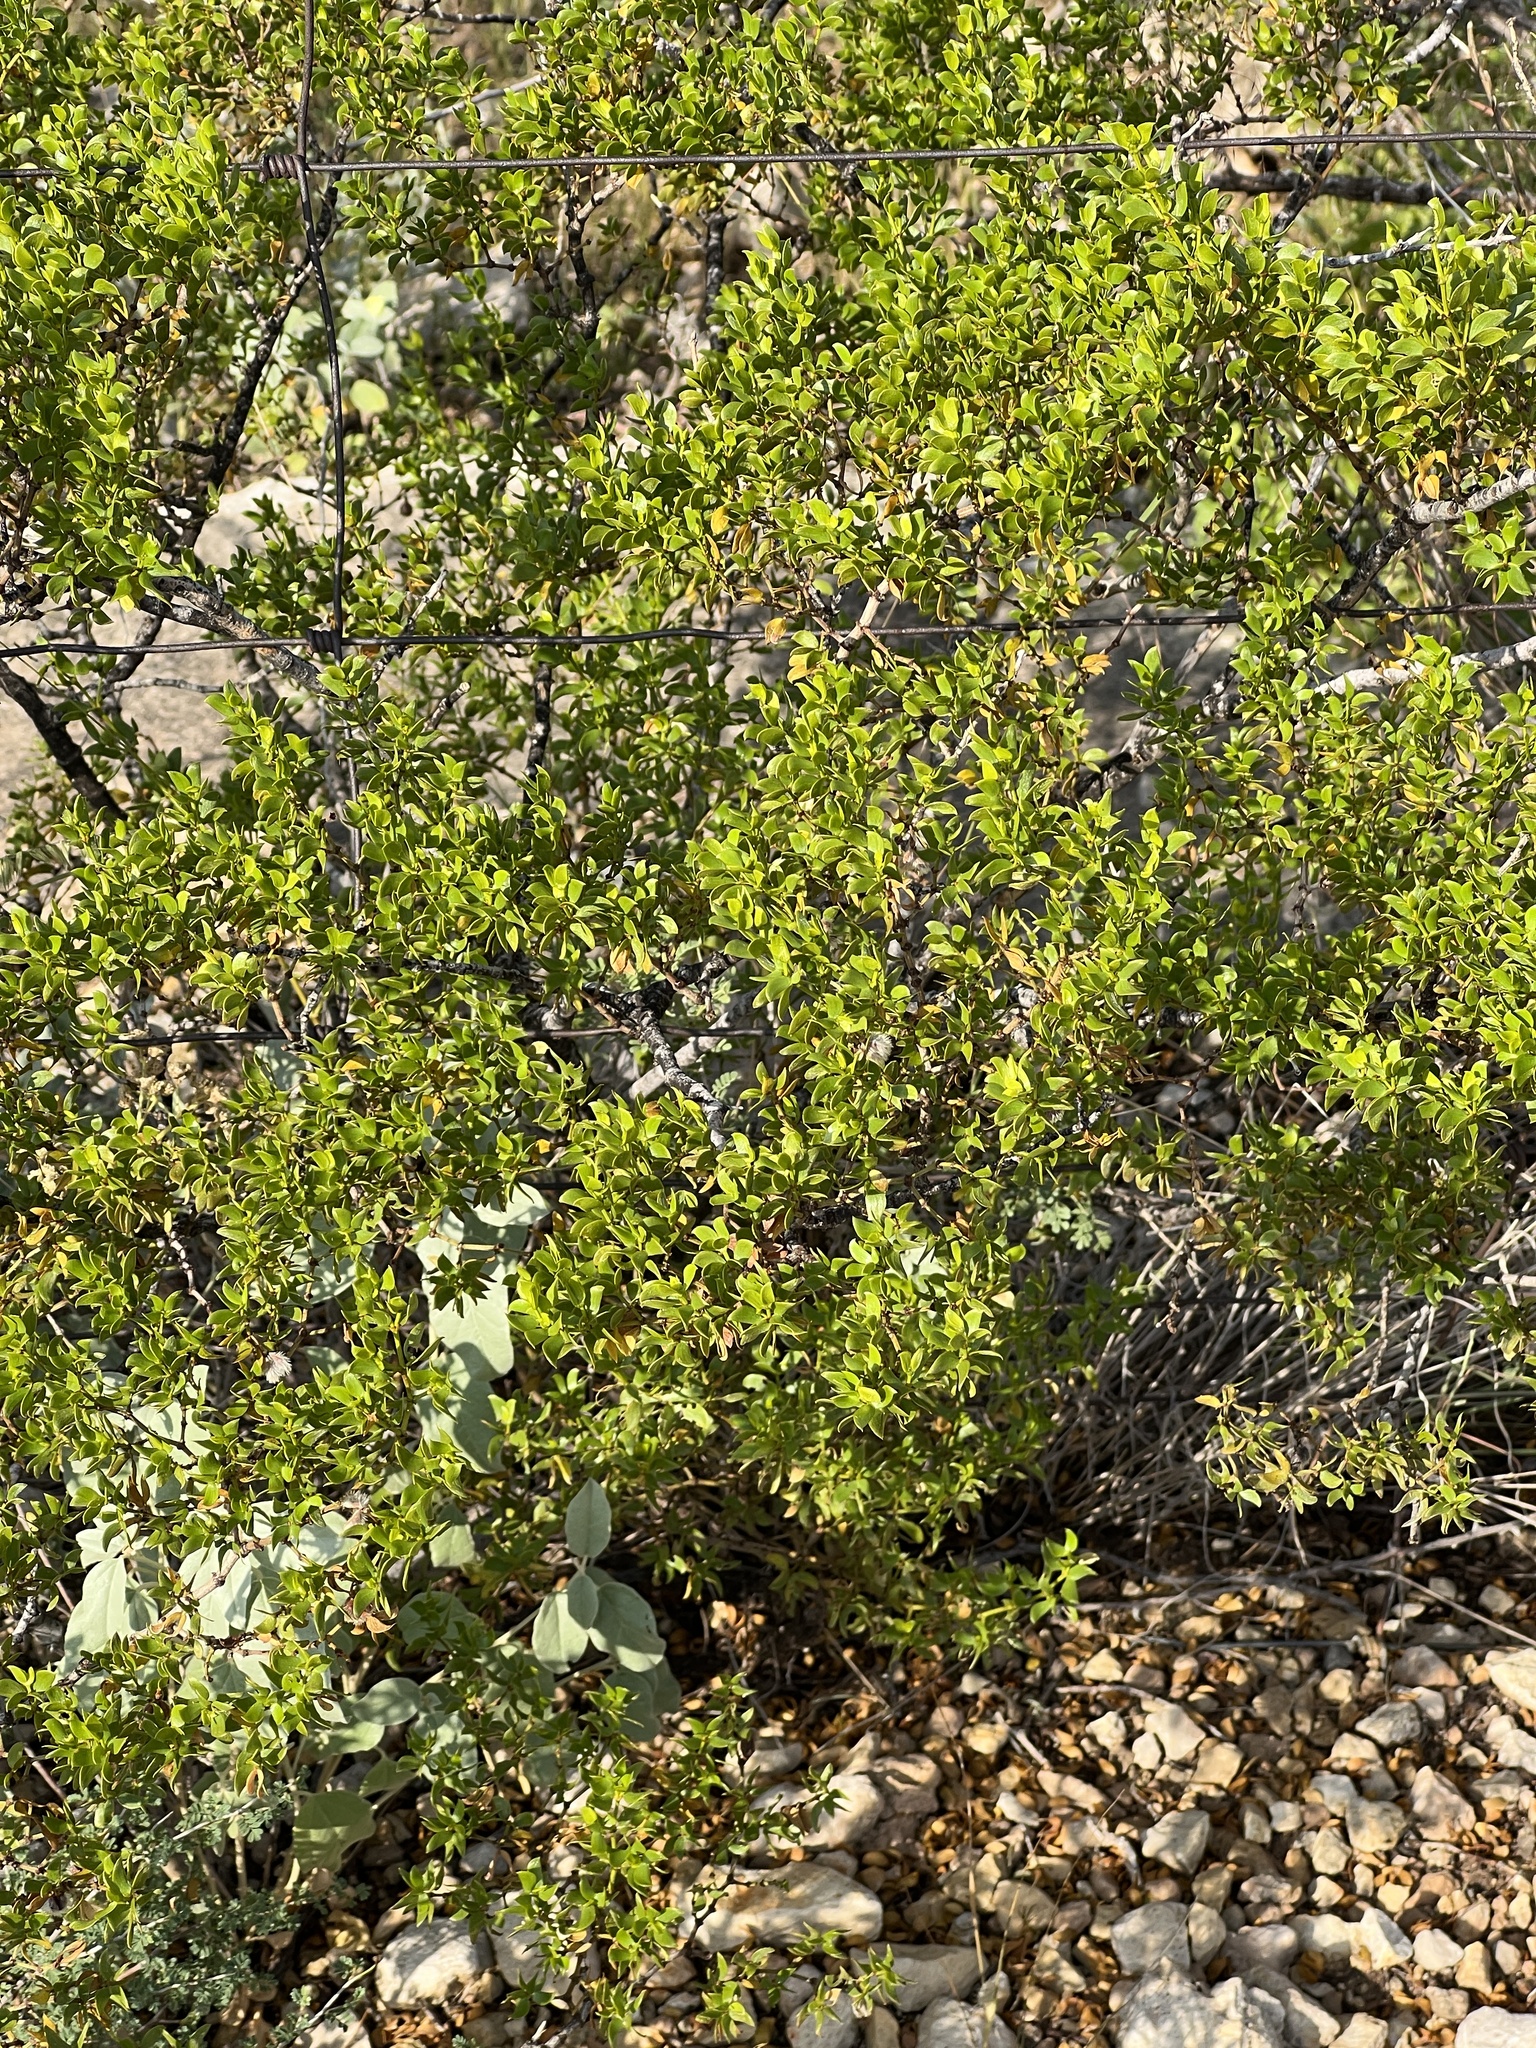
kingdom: Plantae
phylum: Tracheophyta
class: Magnoliopsida
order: Zygophyllales
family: Zygophyllaceae
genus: Larrea
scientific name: Larrea tridentata
